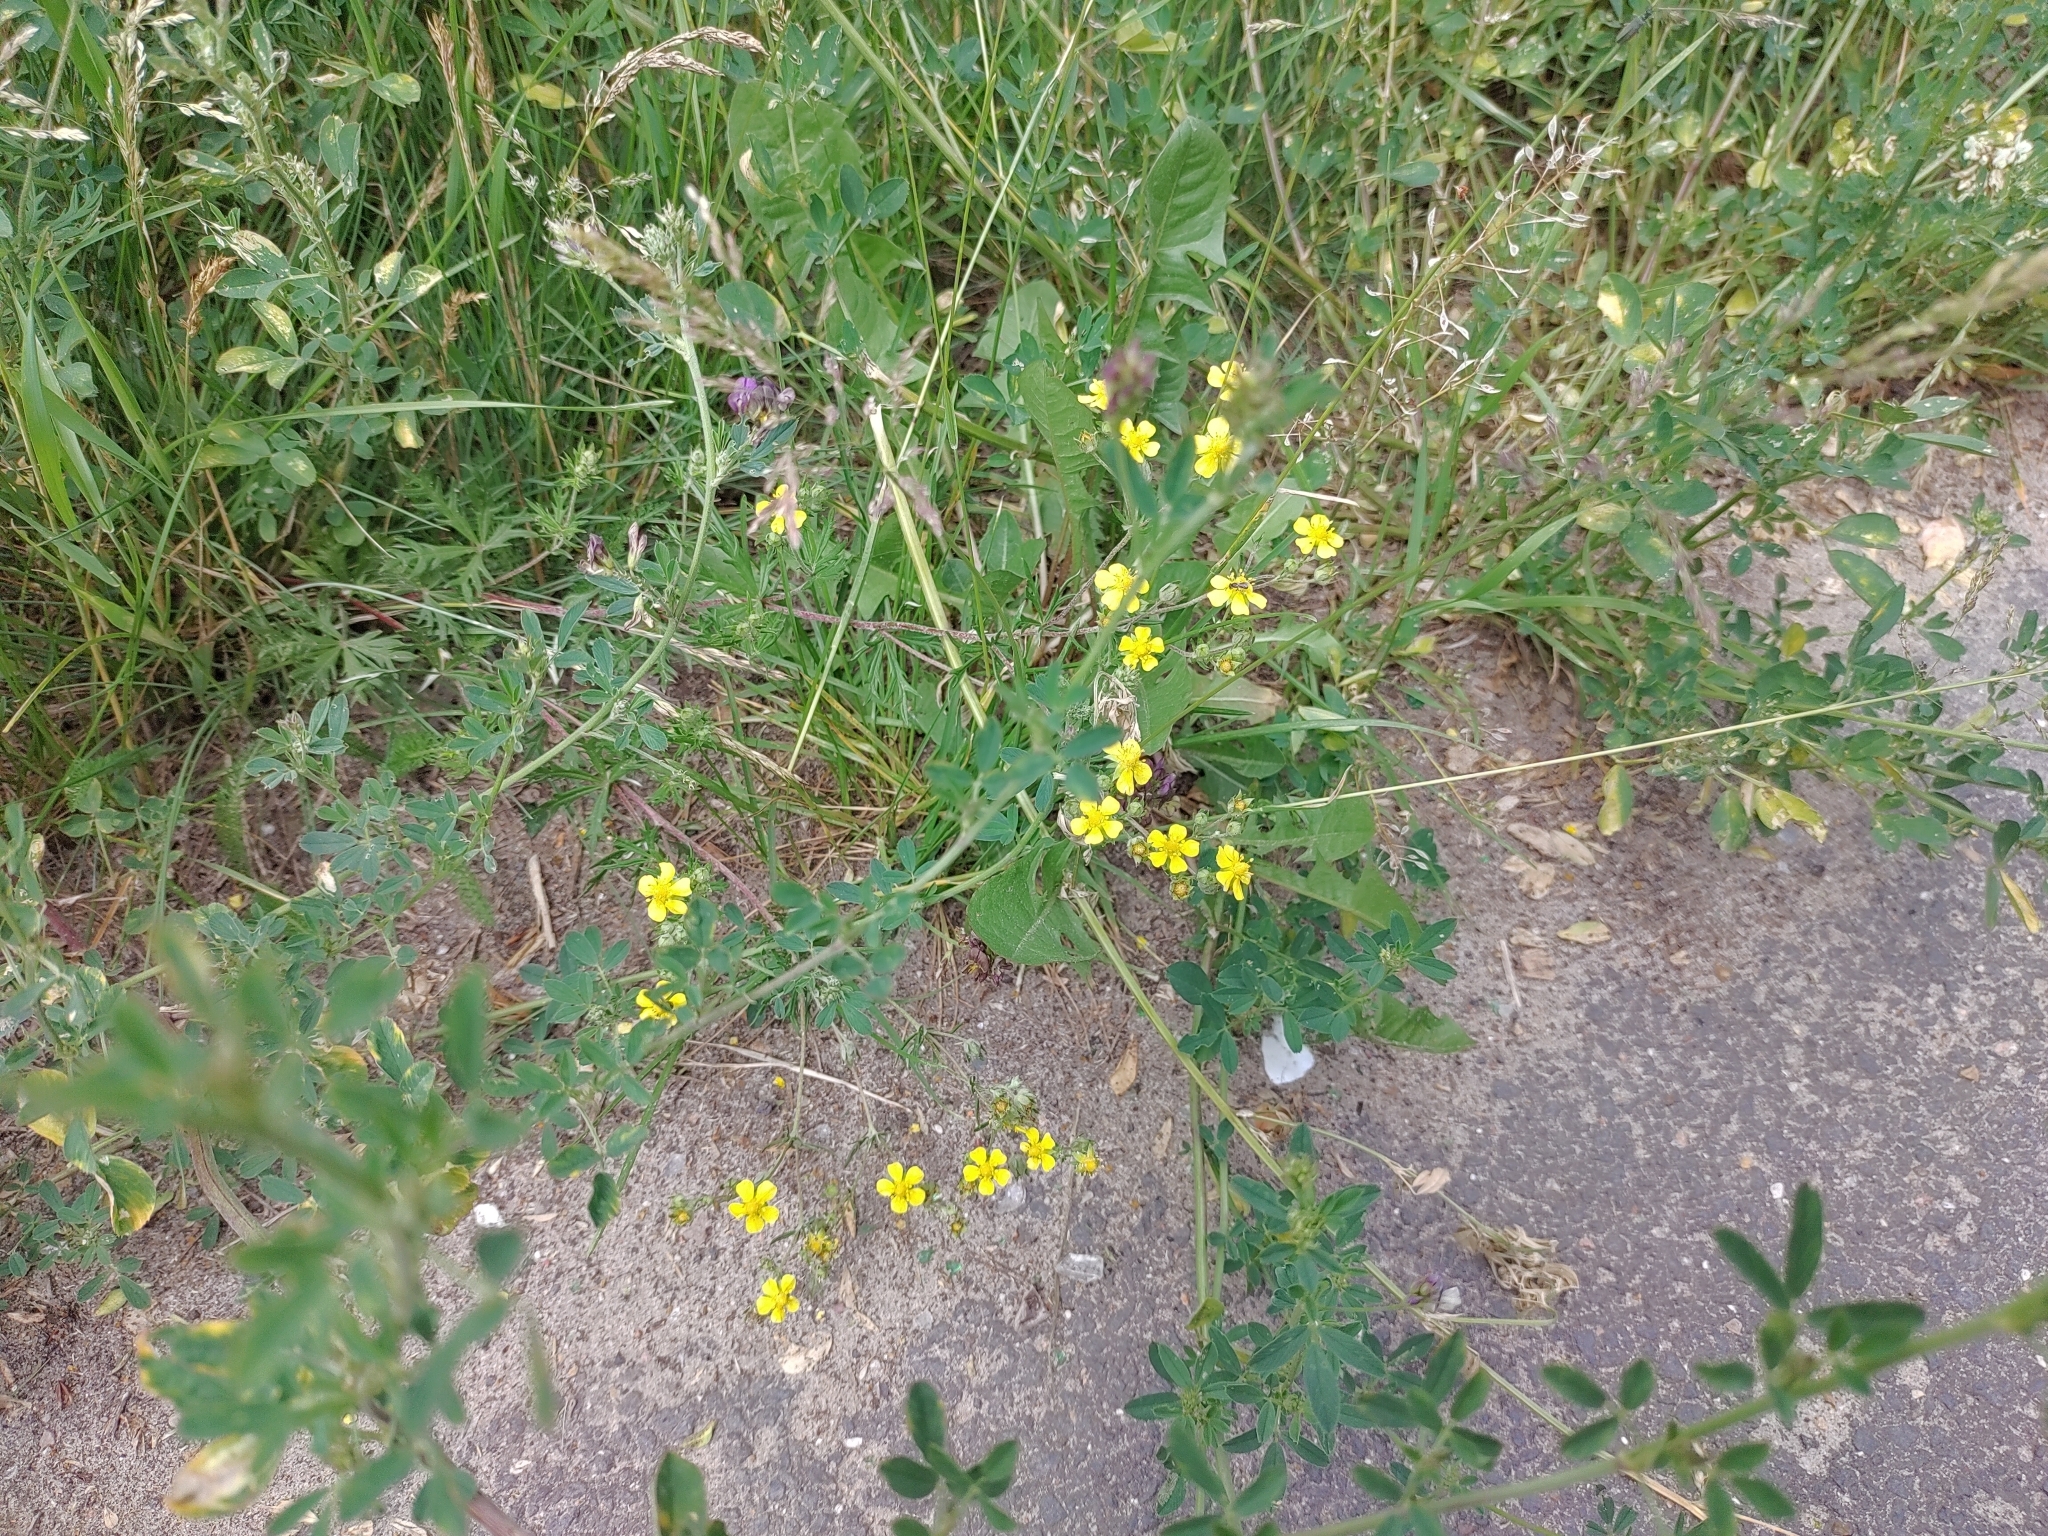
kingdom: Plantae
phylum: Tracheophyta
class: Magnoliopsida
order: Rosales
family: Rosaceae
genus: Potentilla
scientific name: Potentilla argentea
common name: Hoary cinquefoil
